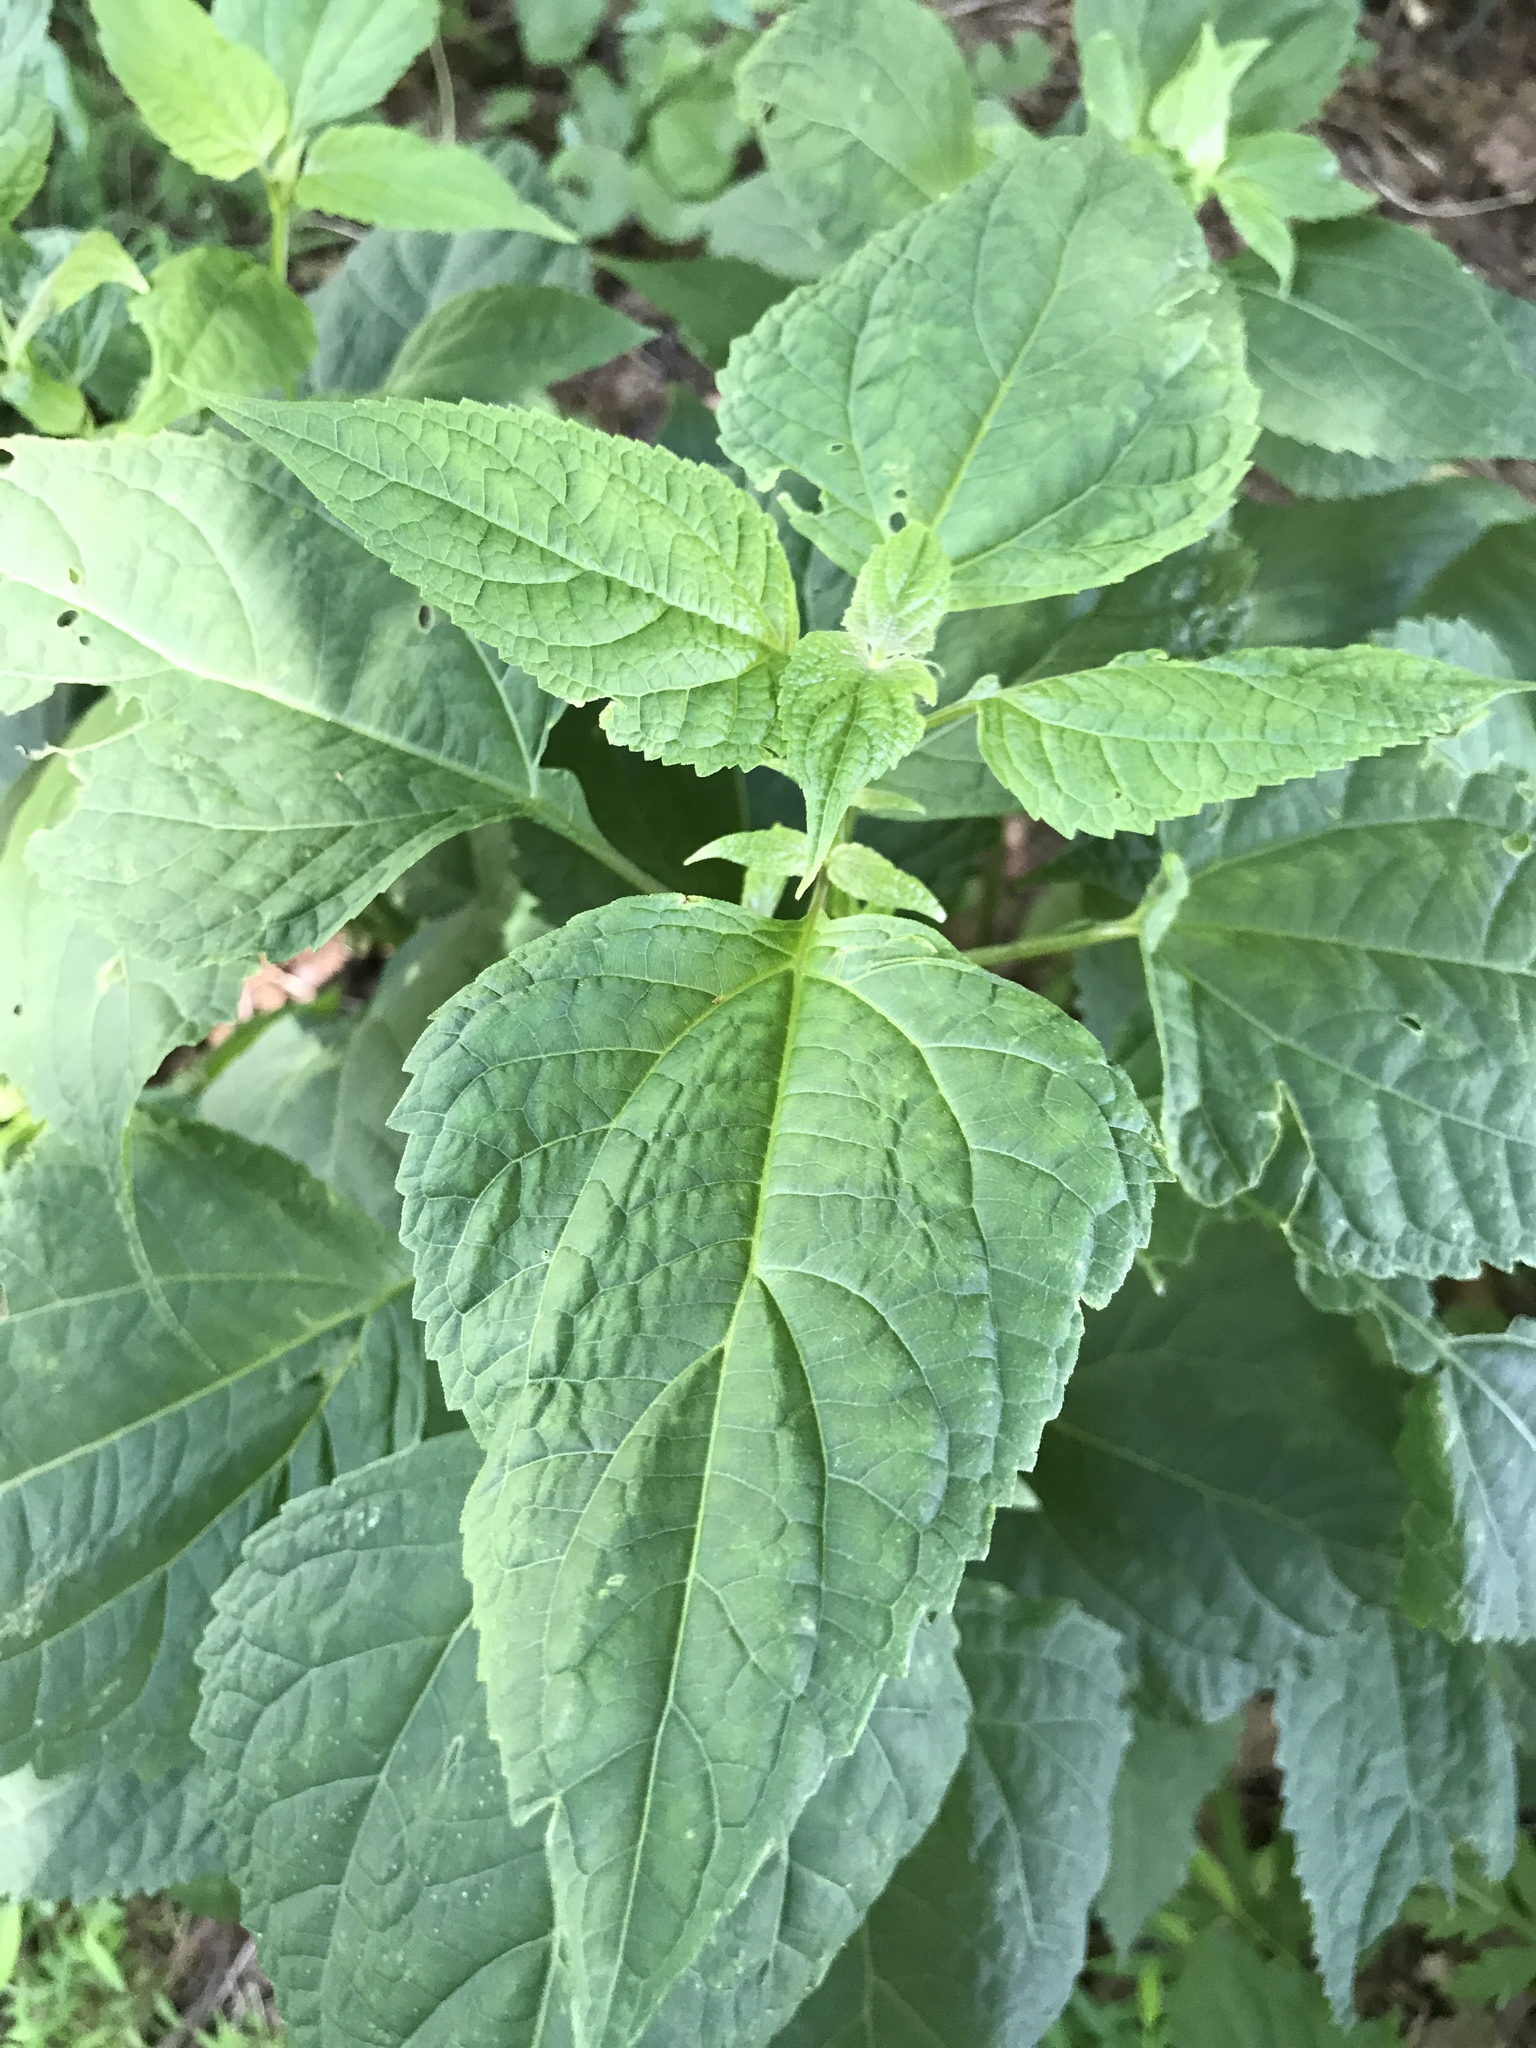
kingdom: Plantae
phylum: Tracheophyta
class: Magnoliopsida
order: Asterales
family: Asteraceae
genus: Ageratina
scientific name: Ageratina altissima
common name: White snakeroot
